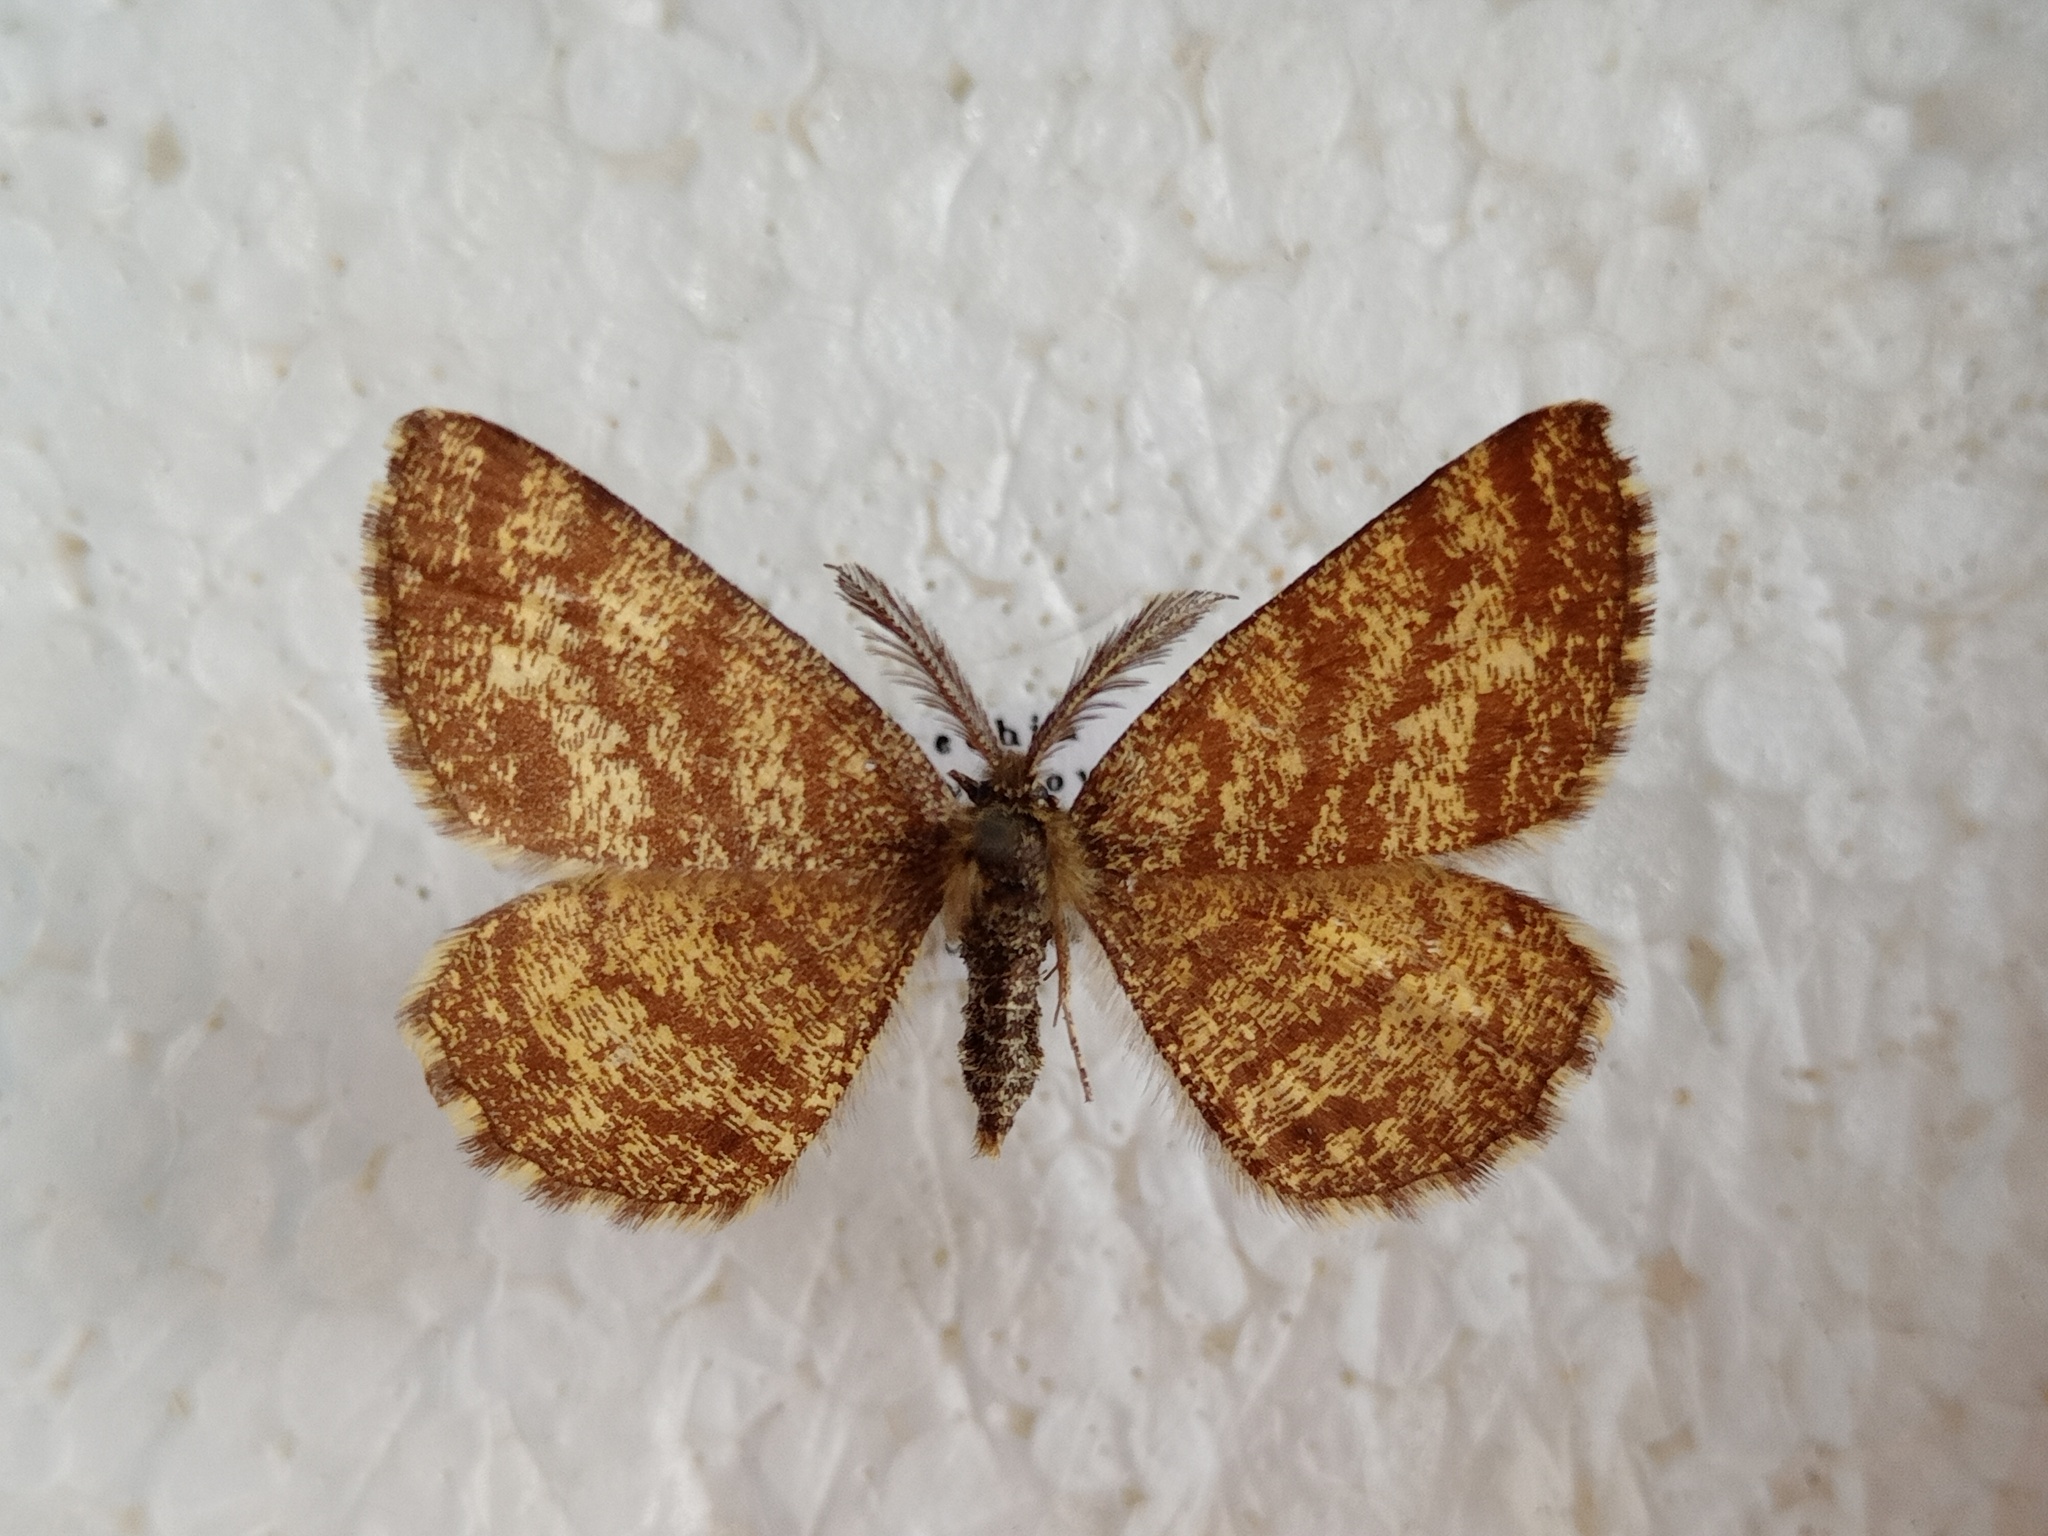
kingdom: Animalia
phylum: Arthropoda
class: Insecta
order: Lepidoptera
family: Geometridae
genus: Ematurga
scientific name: Ematurga atomaria
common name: Common heath
